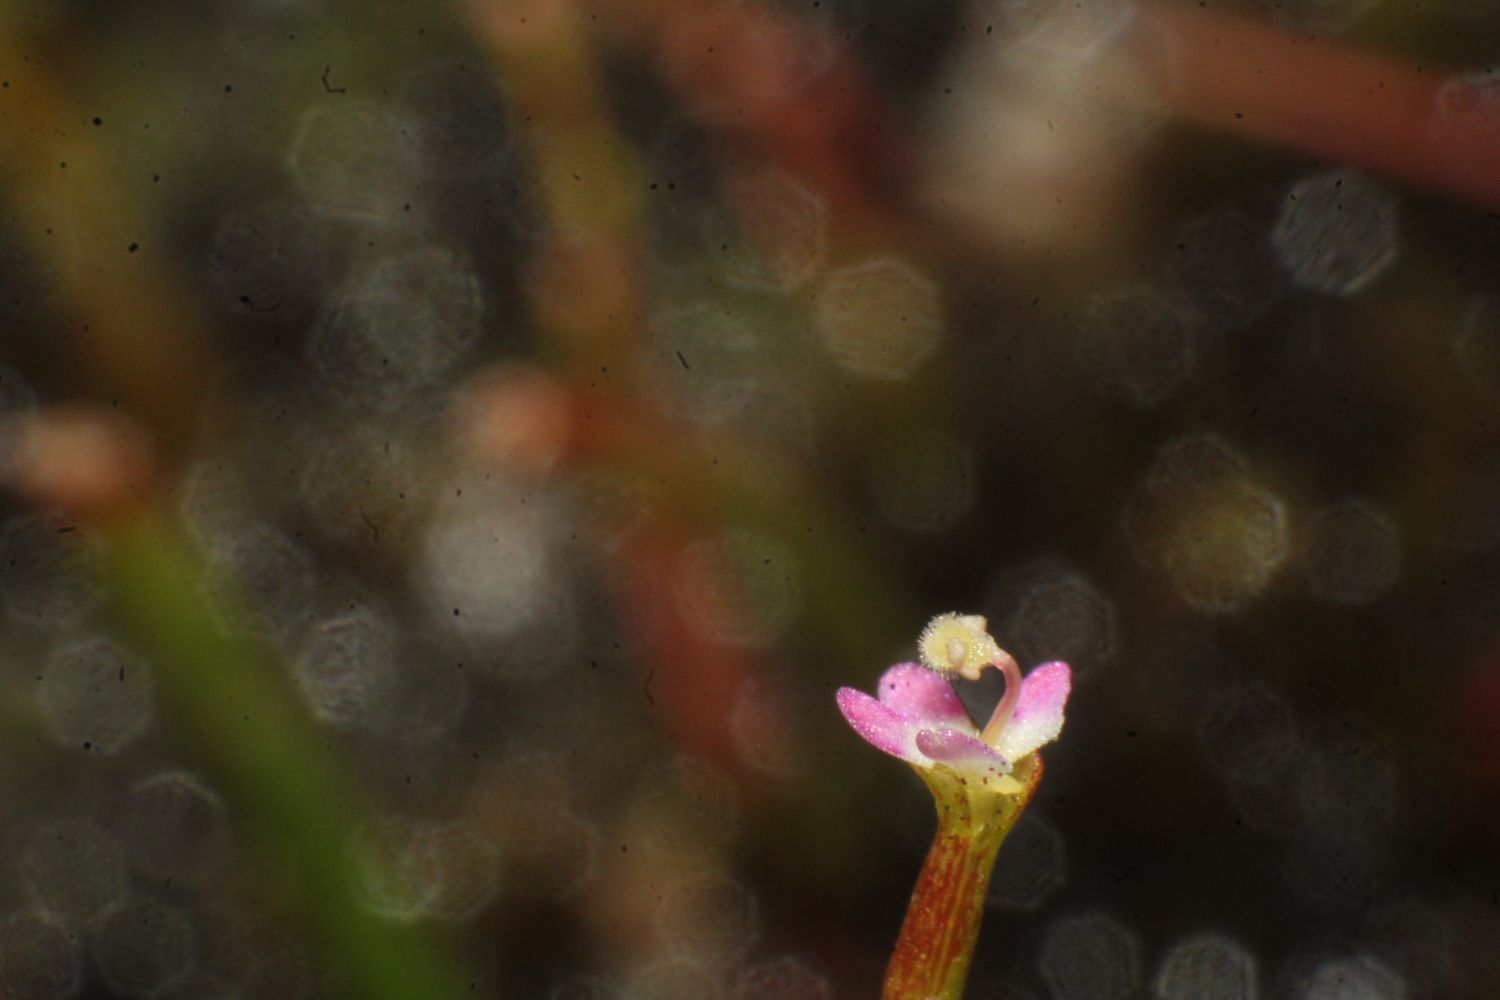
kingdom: Plantae
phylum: Tracheophyta
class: Magnoliopsida
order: Asterales
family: Stylidiaceae
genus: Stylidium
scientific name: Stylidium despectum
